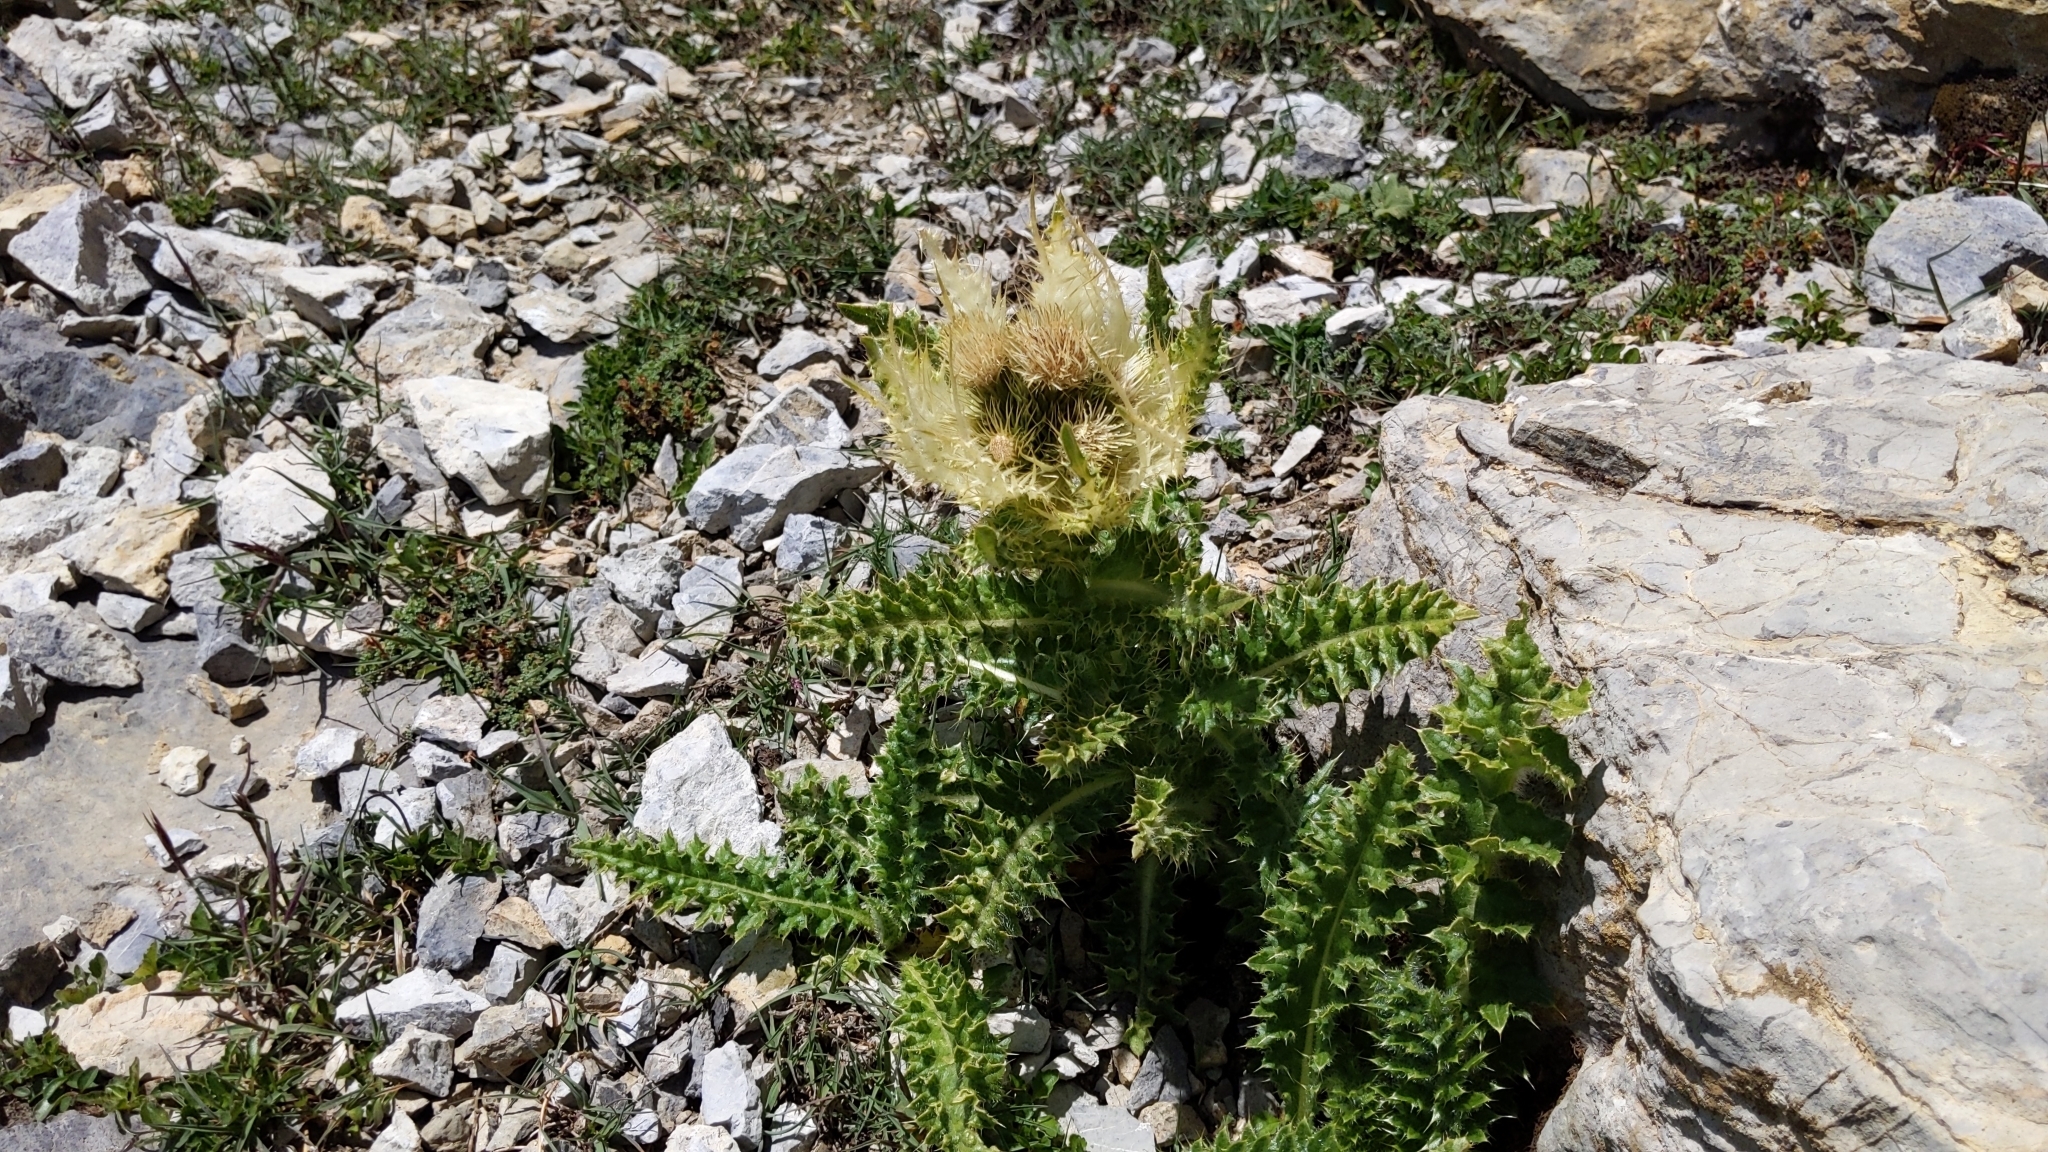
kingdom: Plantae
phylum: Tracheophyta
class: Magnoliopsida
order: Asterales
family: Asteraceae
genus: Cirsium
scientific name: Cirsium spinosissimum
